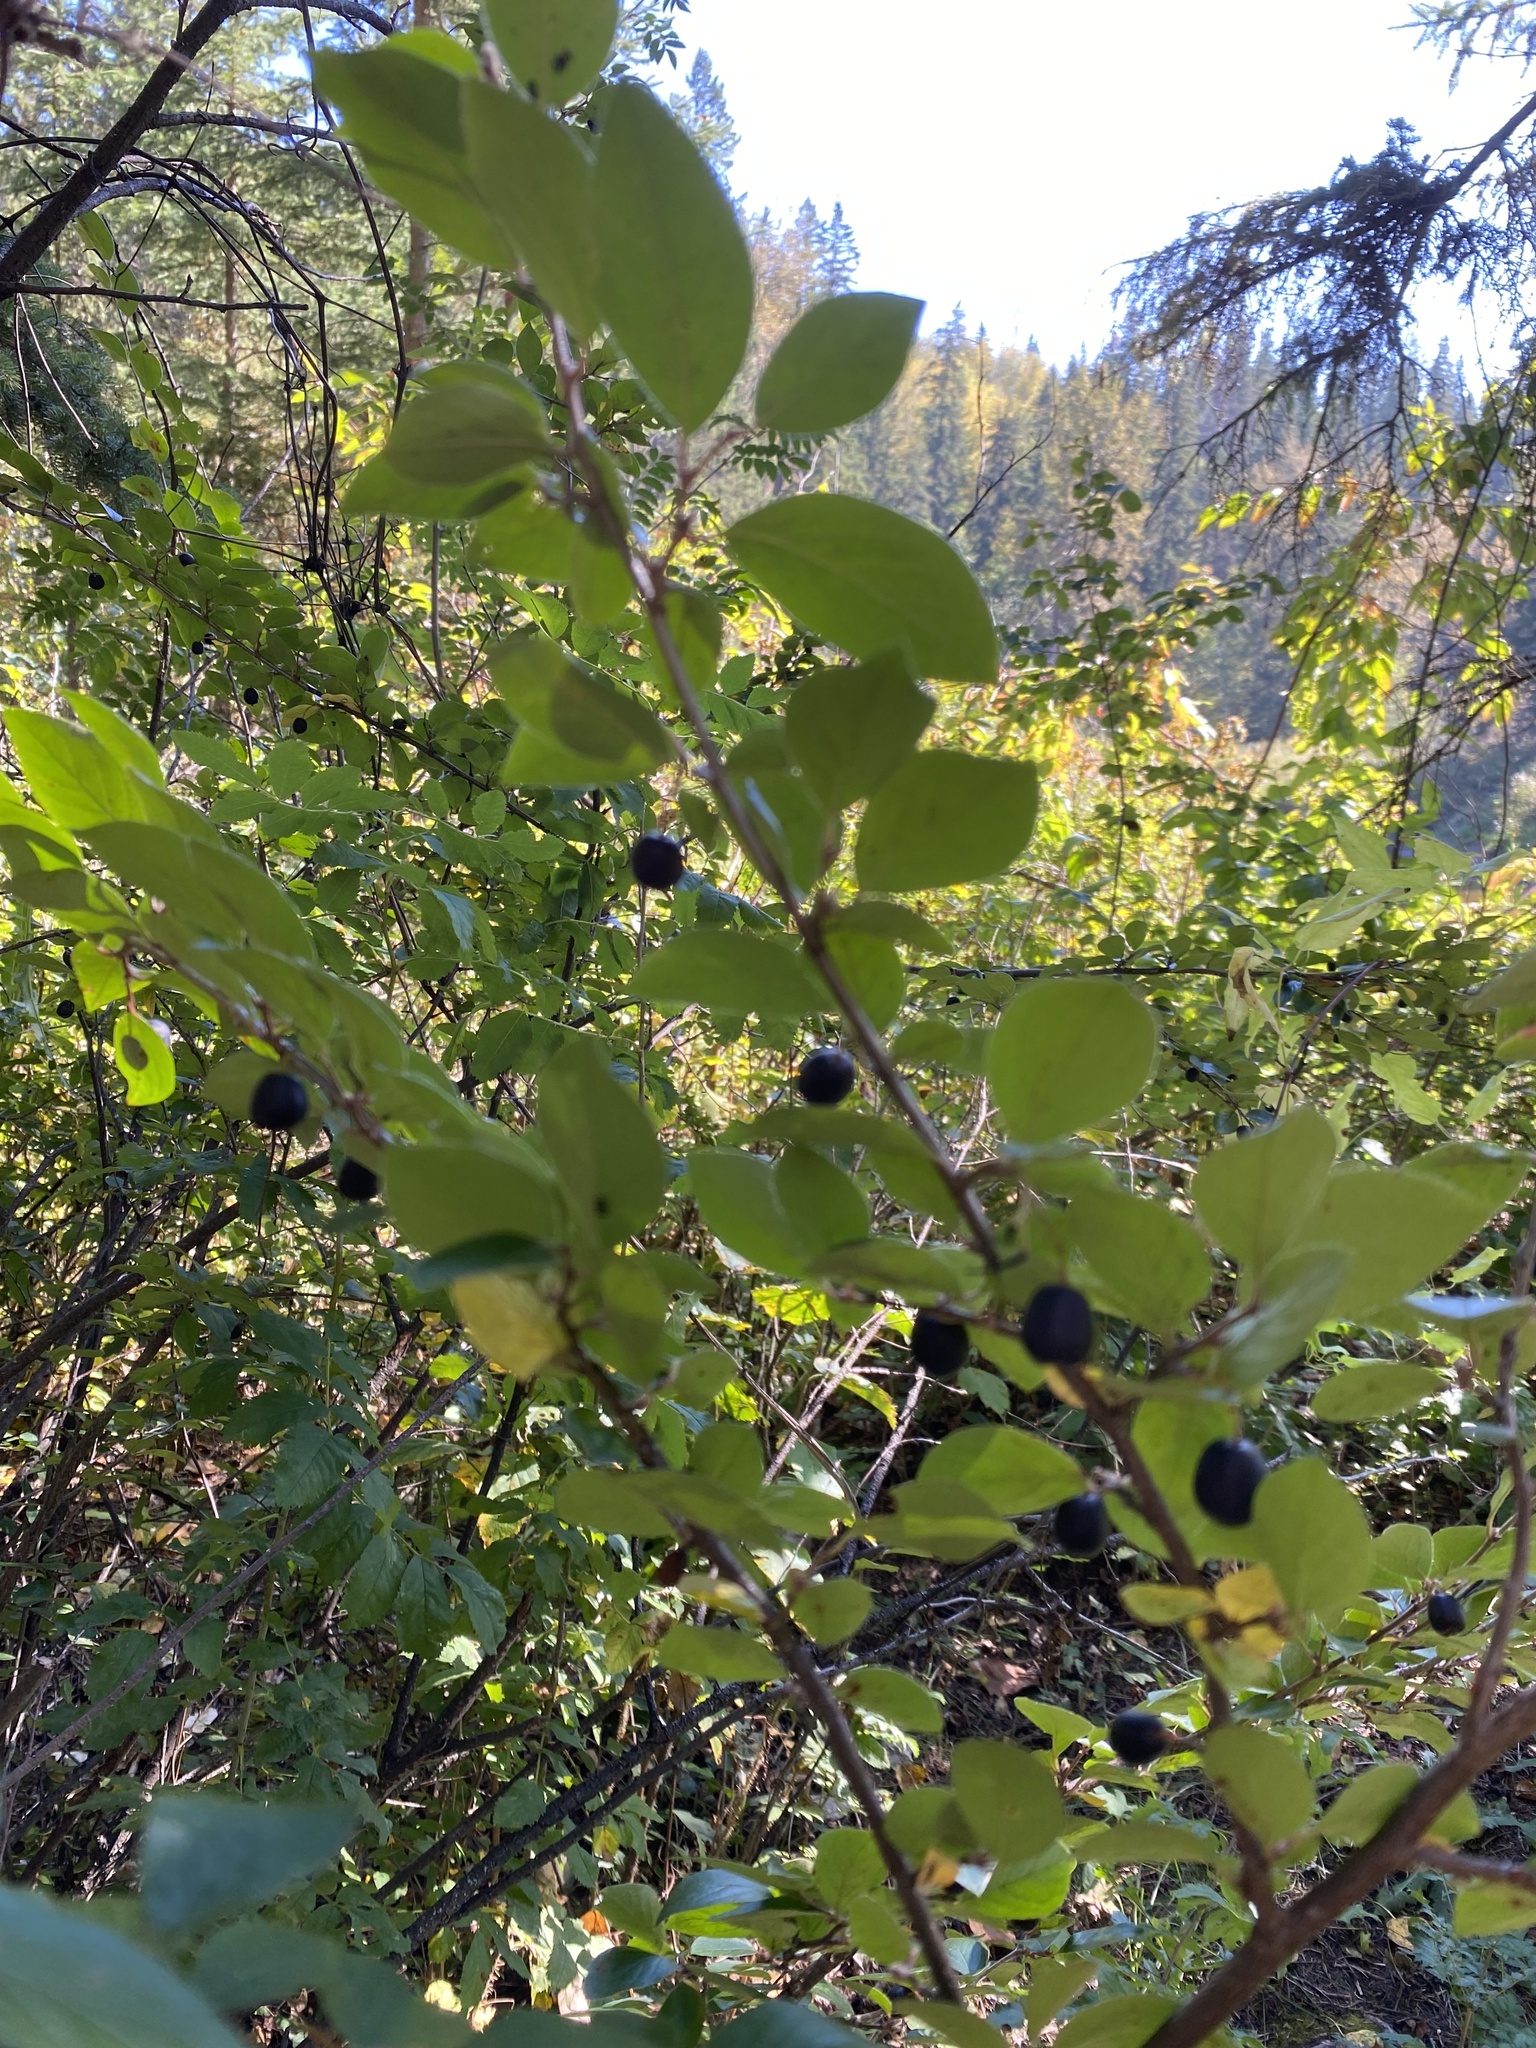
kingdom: Plantae
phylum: Tracheophyta
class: Magnoliopsida
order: Rosales
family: Rosaceae
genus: Cotoneaster
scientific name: Cotoneaster acutifolius
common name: Peking cotoneaster
